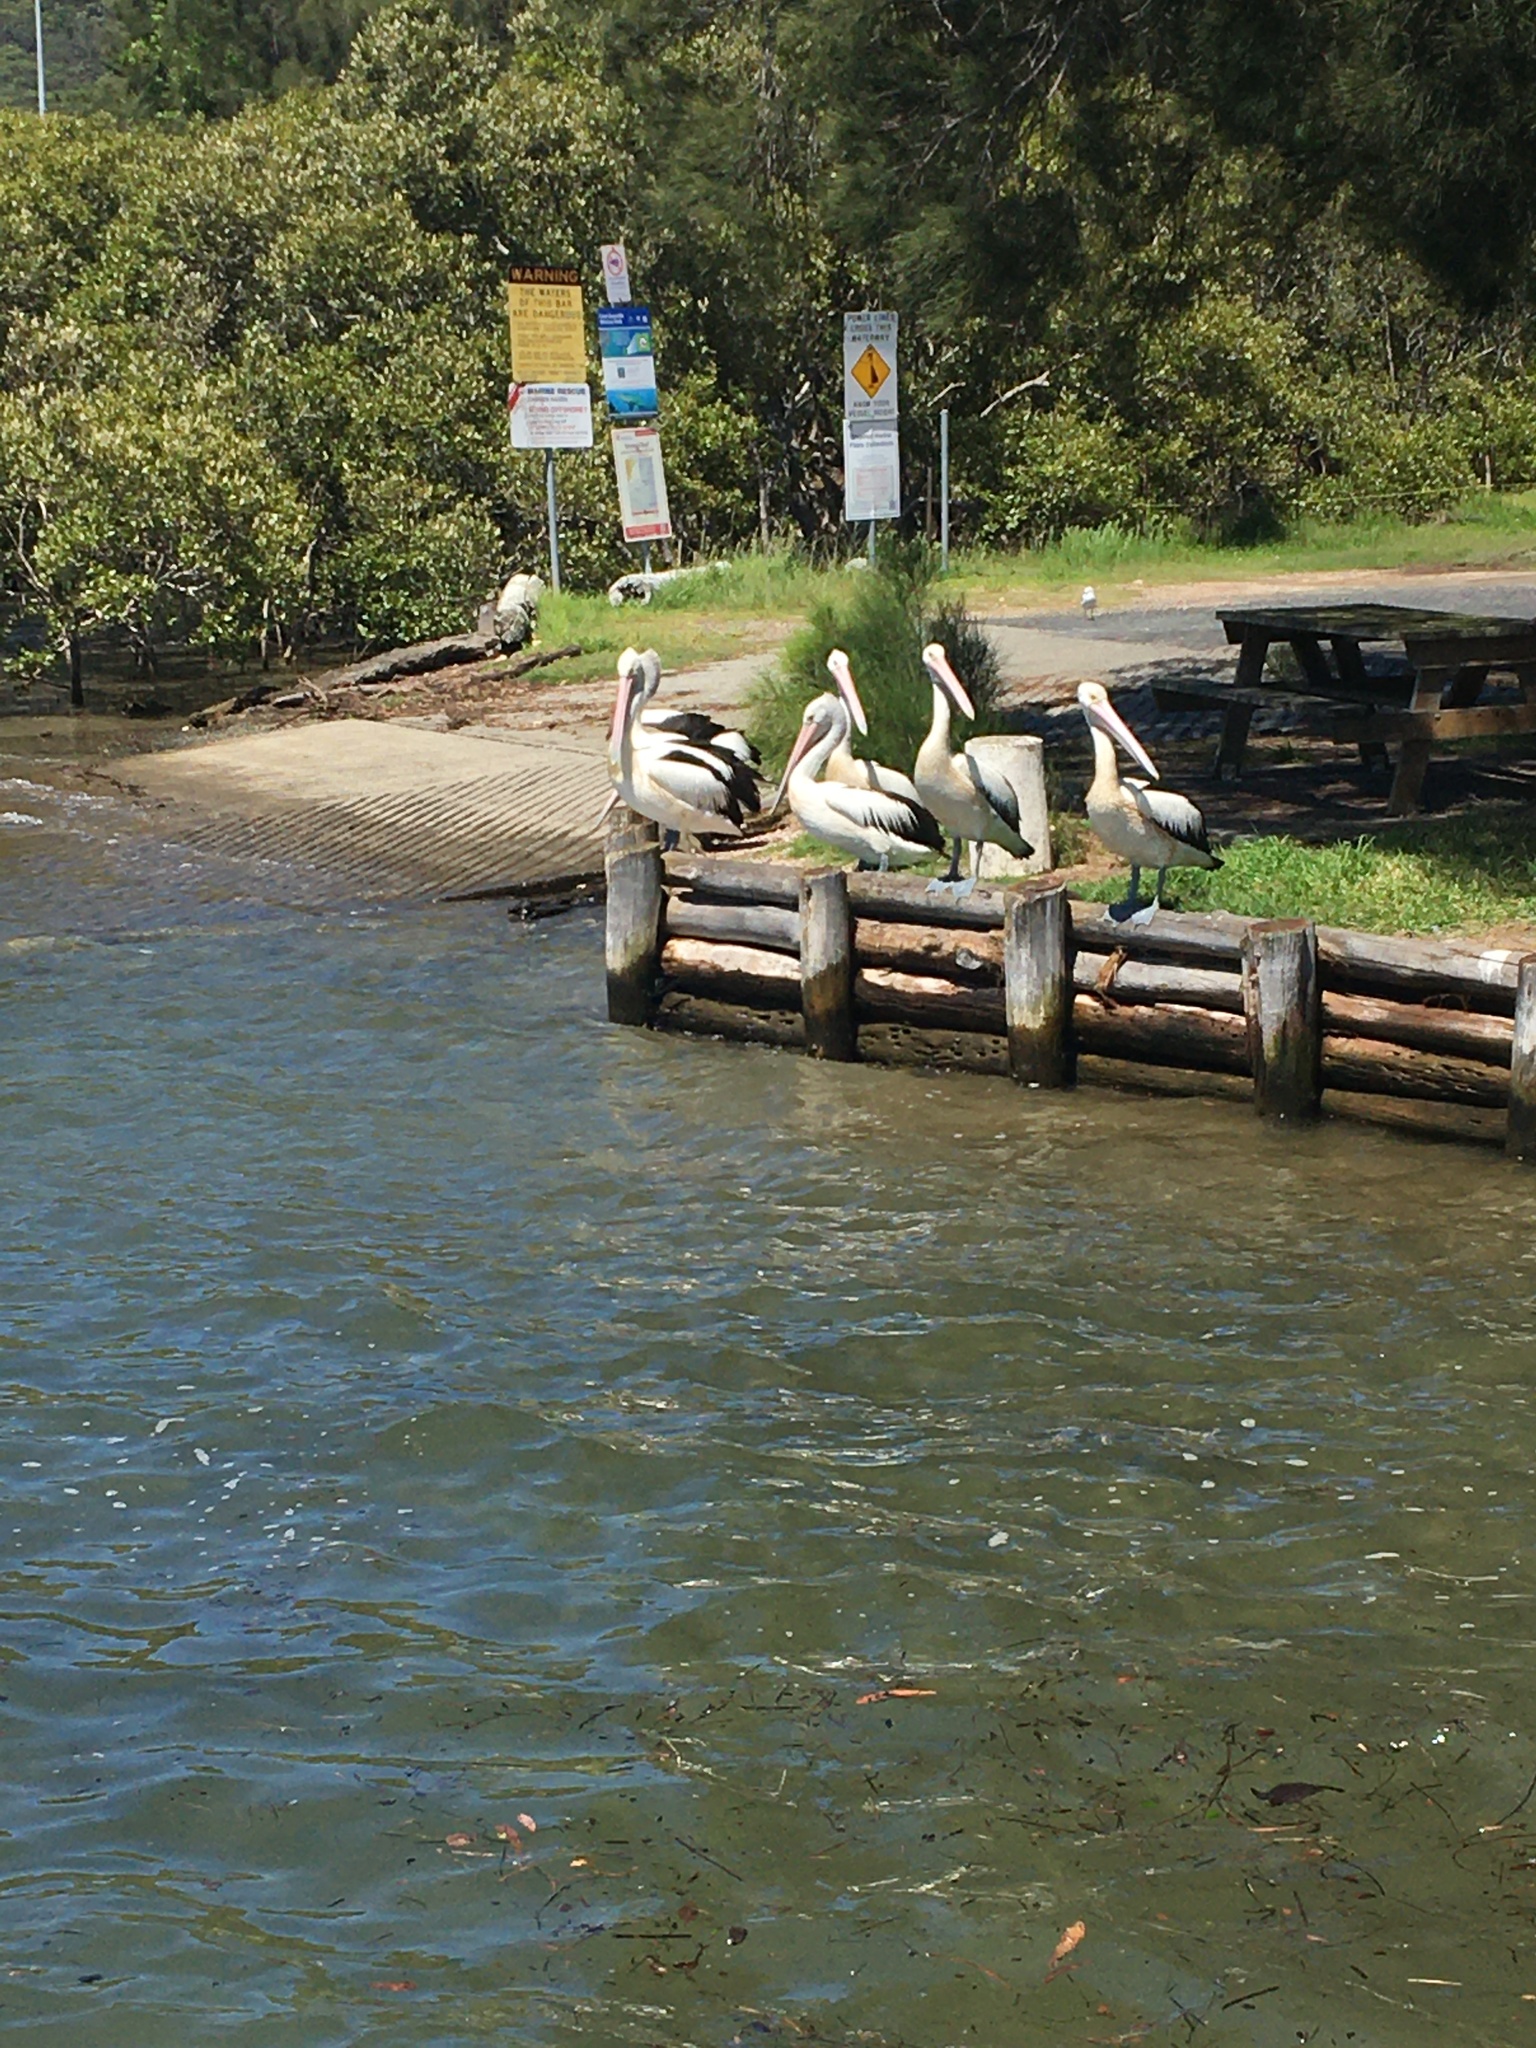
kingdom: Animalia
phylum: Chordata
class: Aves
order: Pelecaniformes
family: Pelecanidae
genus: Pelecanus
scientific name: Pelecanus conspicillatus
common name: Australian pelican
